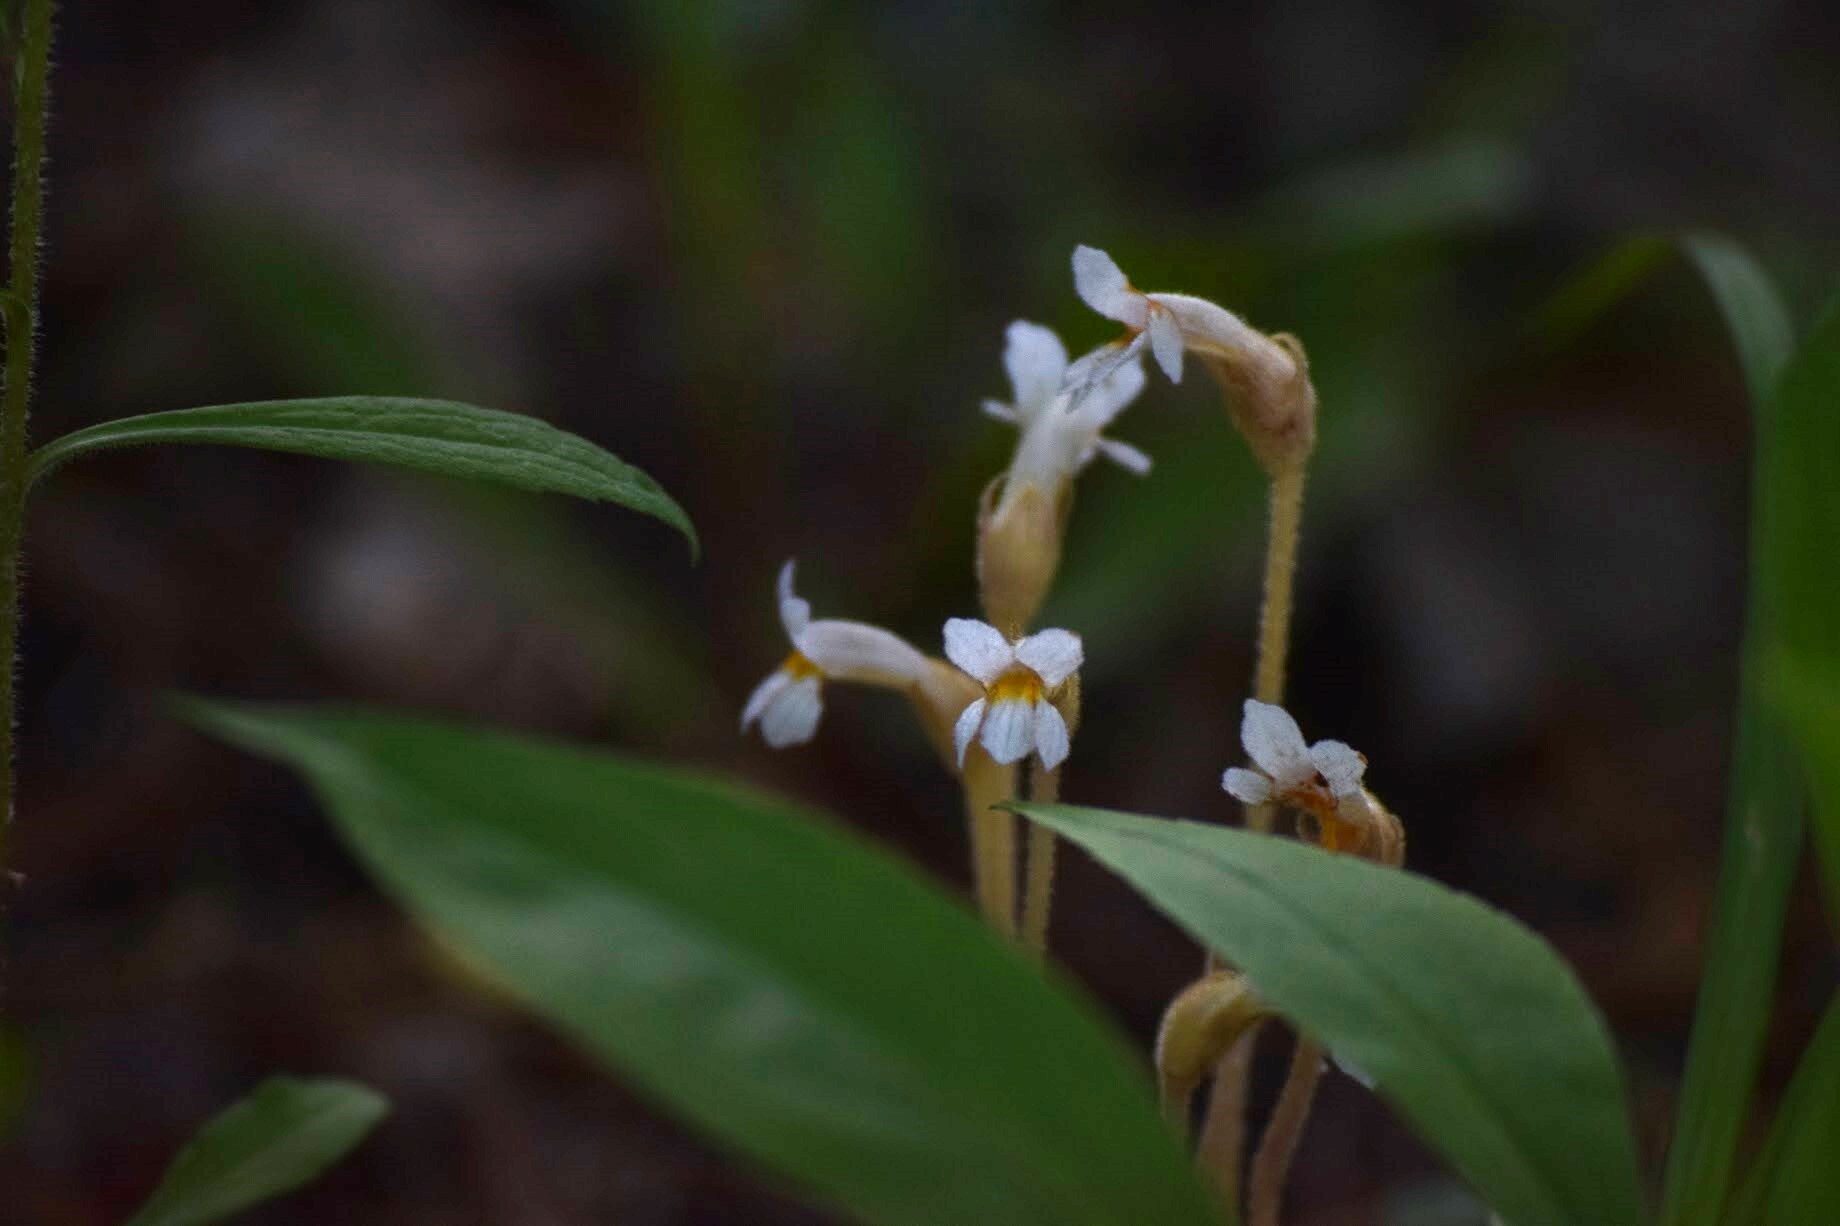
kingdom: Plantae
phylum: Tracheophyta
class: Magnoliopsida
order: Lamiales
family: Orobanchaceae
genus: Aphyllon
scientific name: Aphyllon uniflorum
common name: One-flowered broomrape
